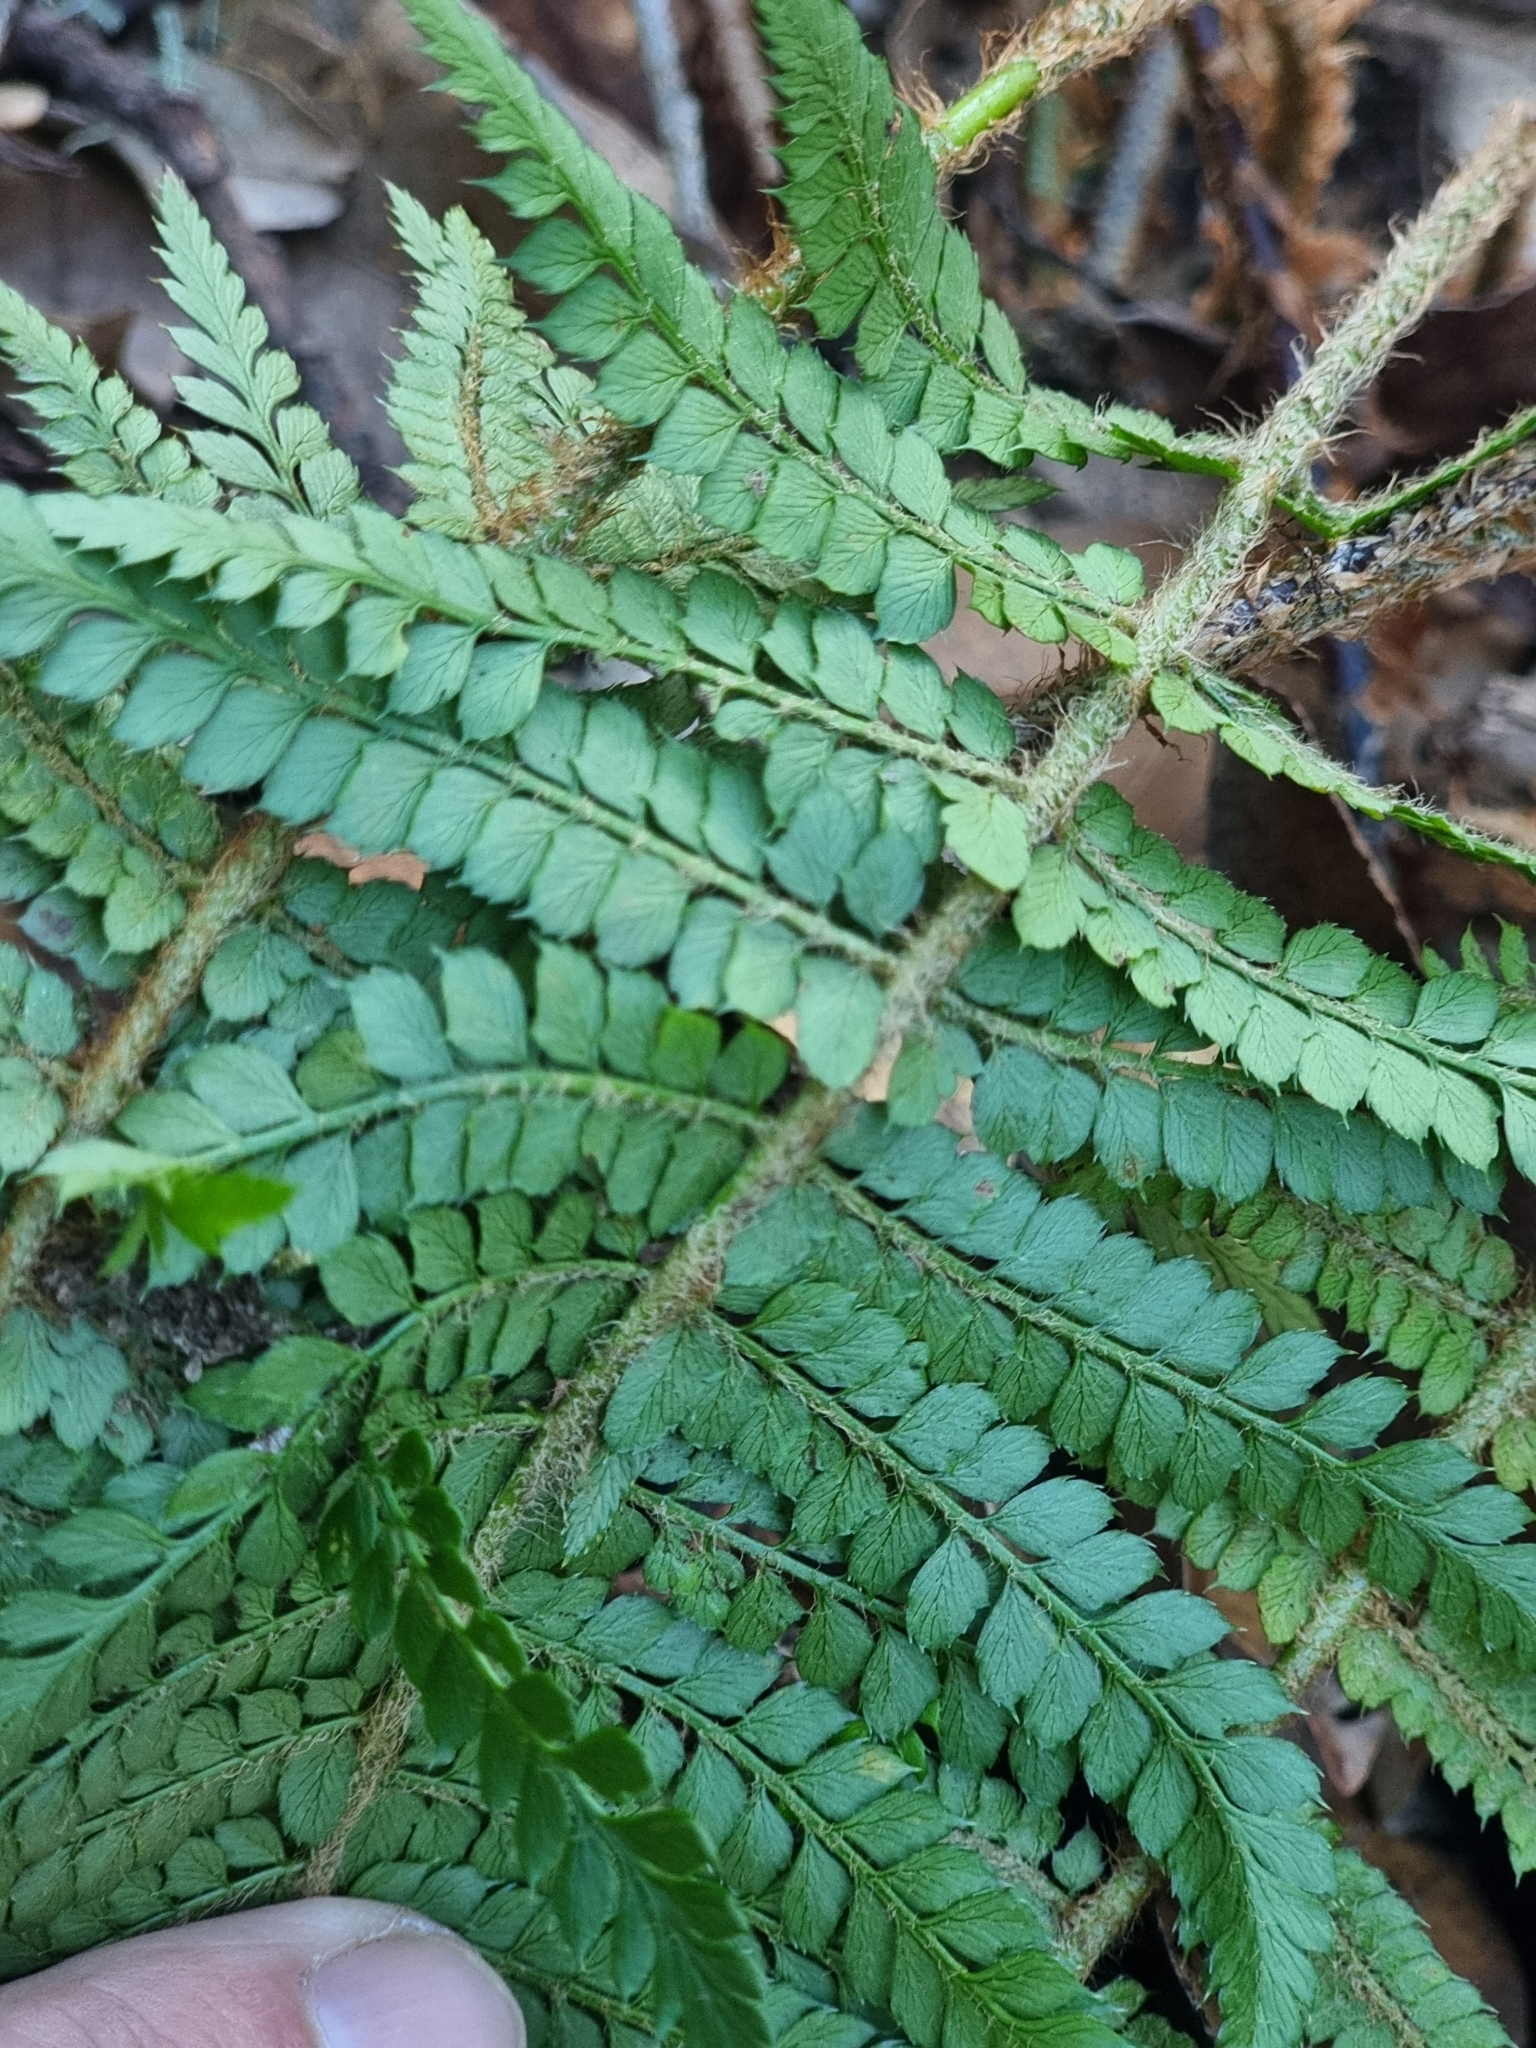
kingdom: Plantae
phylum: Tracheophyta
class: Polypodiopsida
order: Polypodiales
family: Dryopteridaceae
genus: Polystichum
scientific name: Polystichum setiferum
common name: Soft shield-fern
